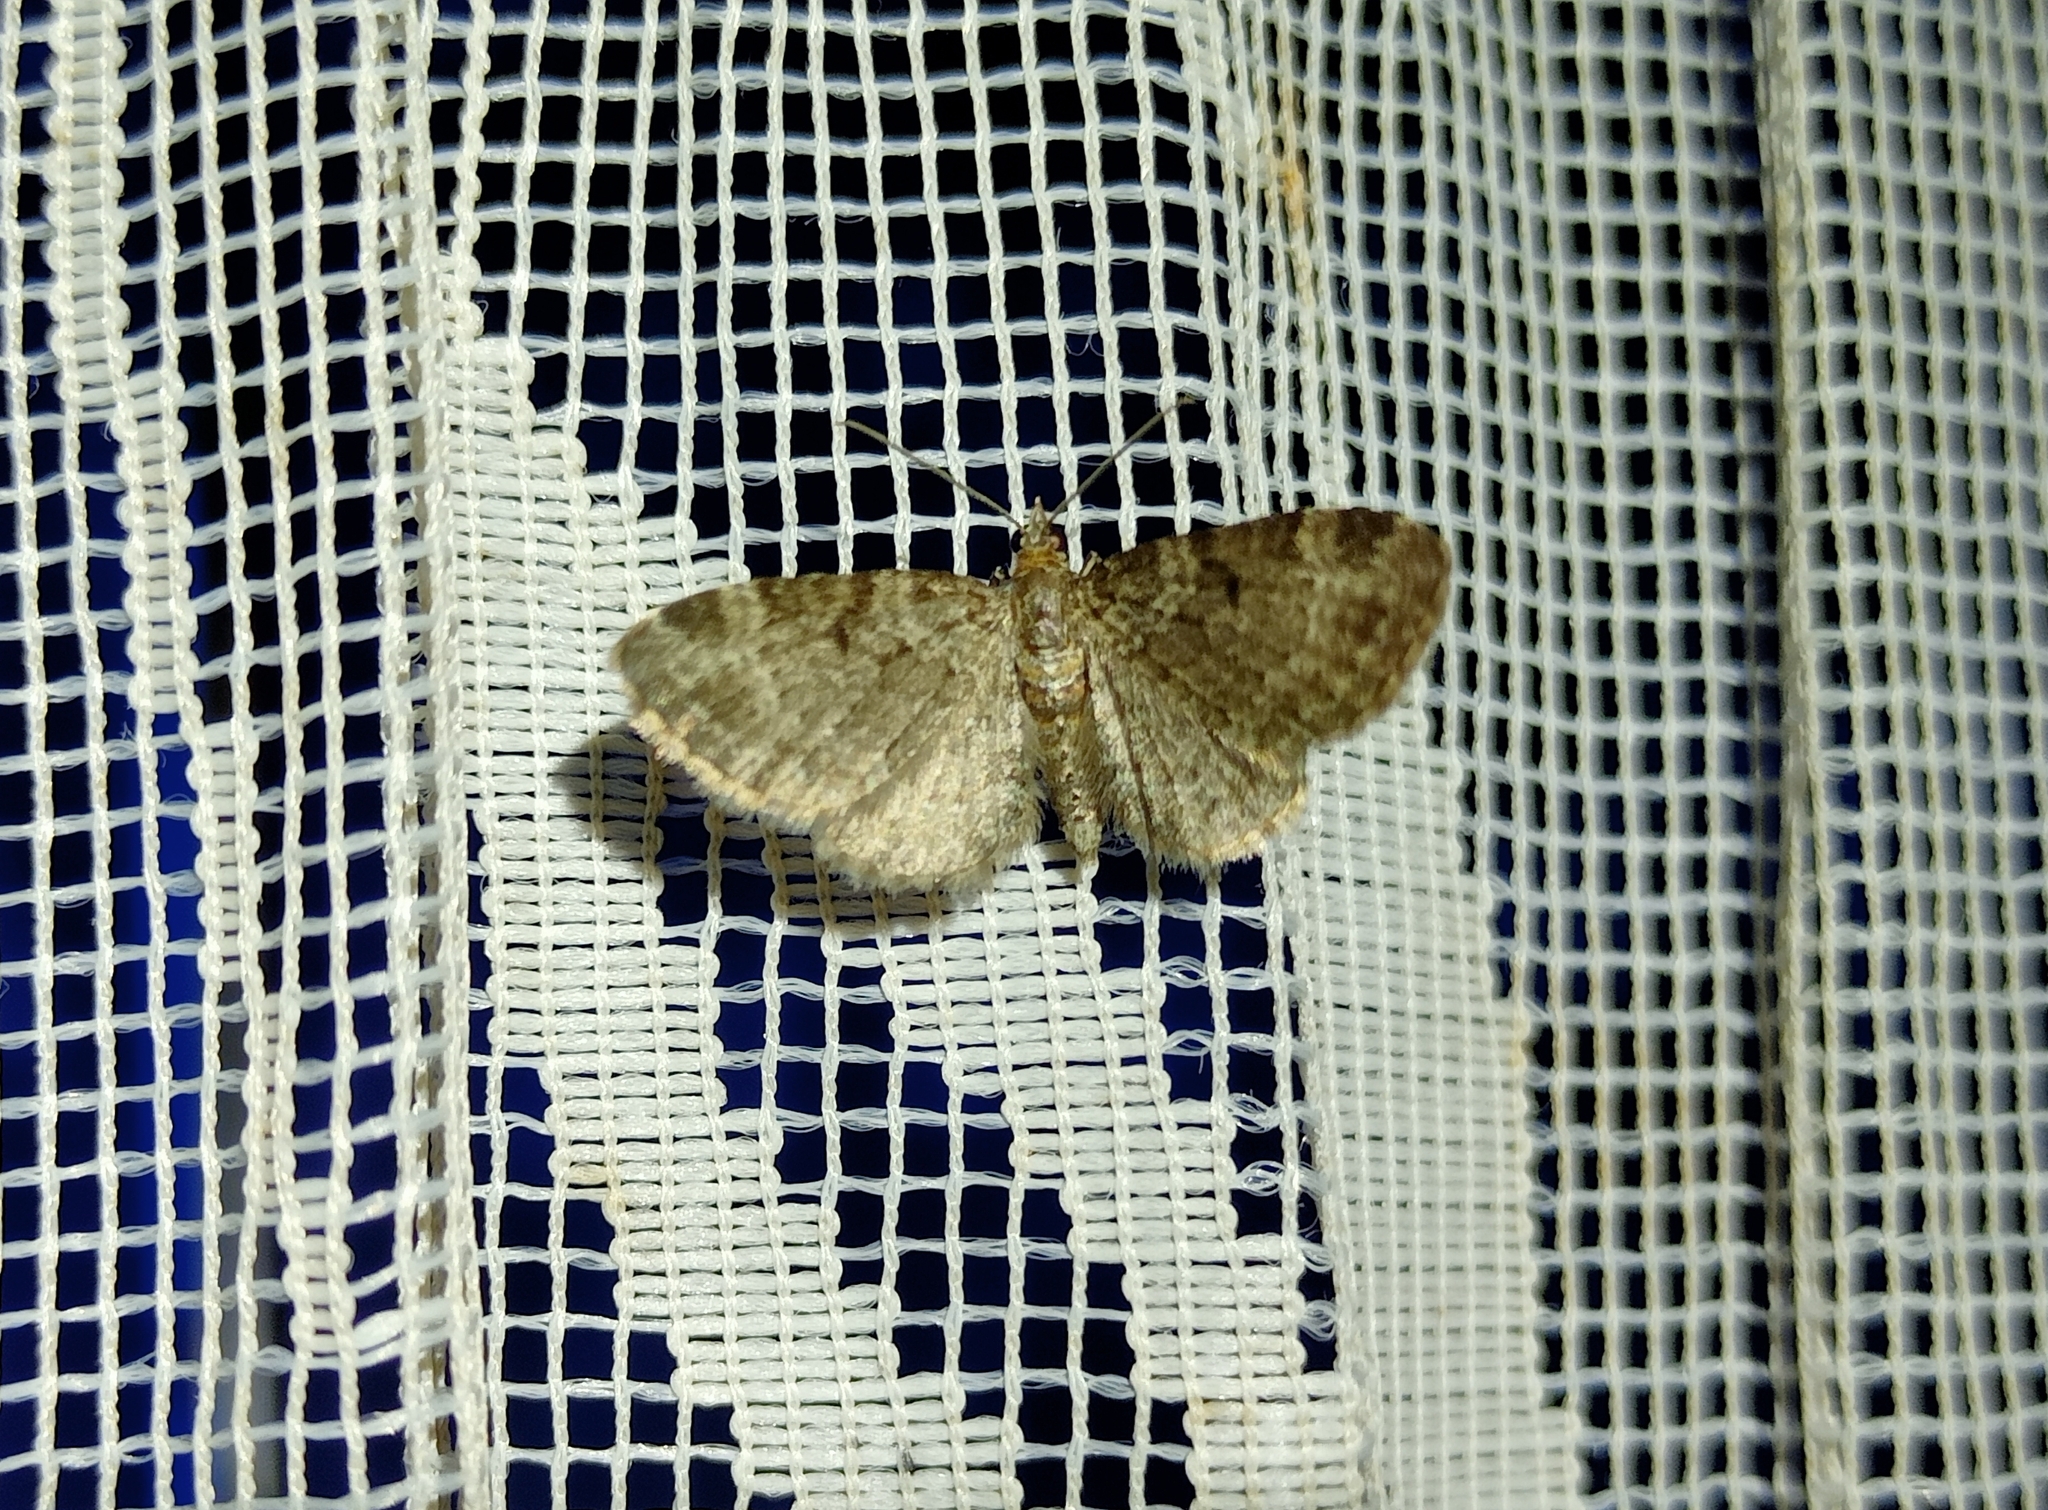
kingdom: Animalia
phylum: Arthropoda
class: Insecta
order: Lepidoptera
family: Geometridae
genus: Pasiphila
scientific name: Pasiphila chloerata
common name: Sloe pug
